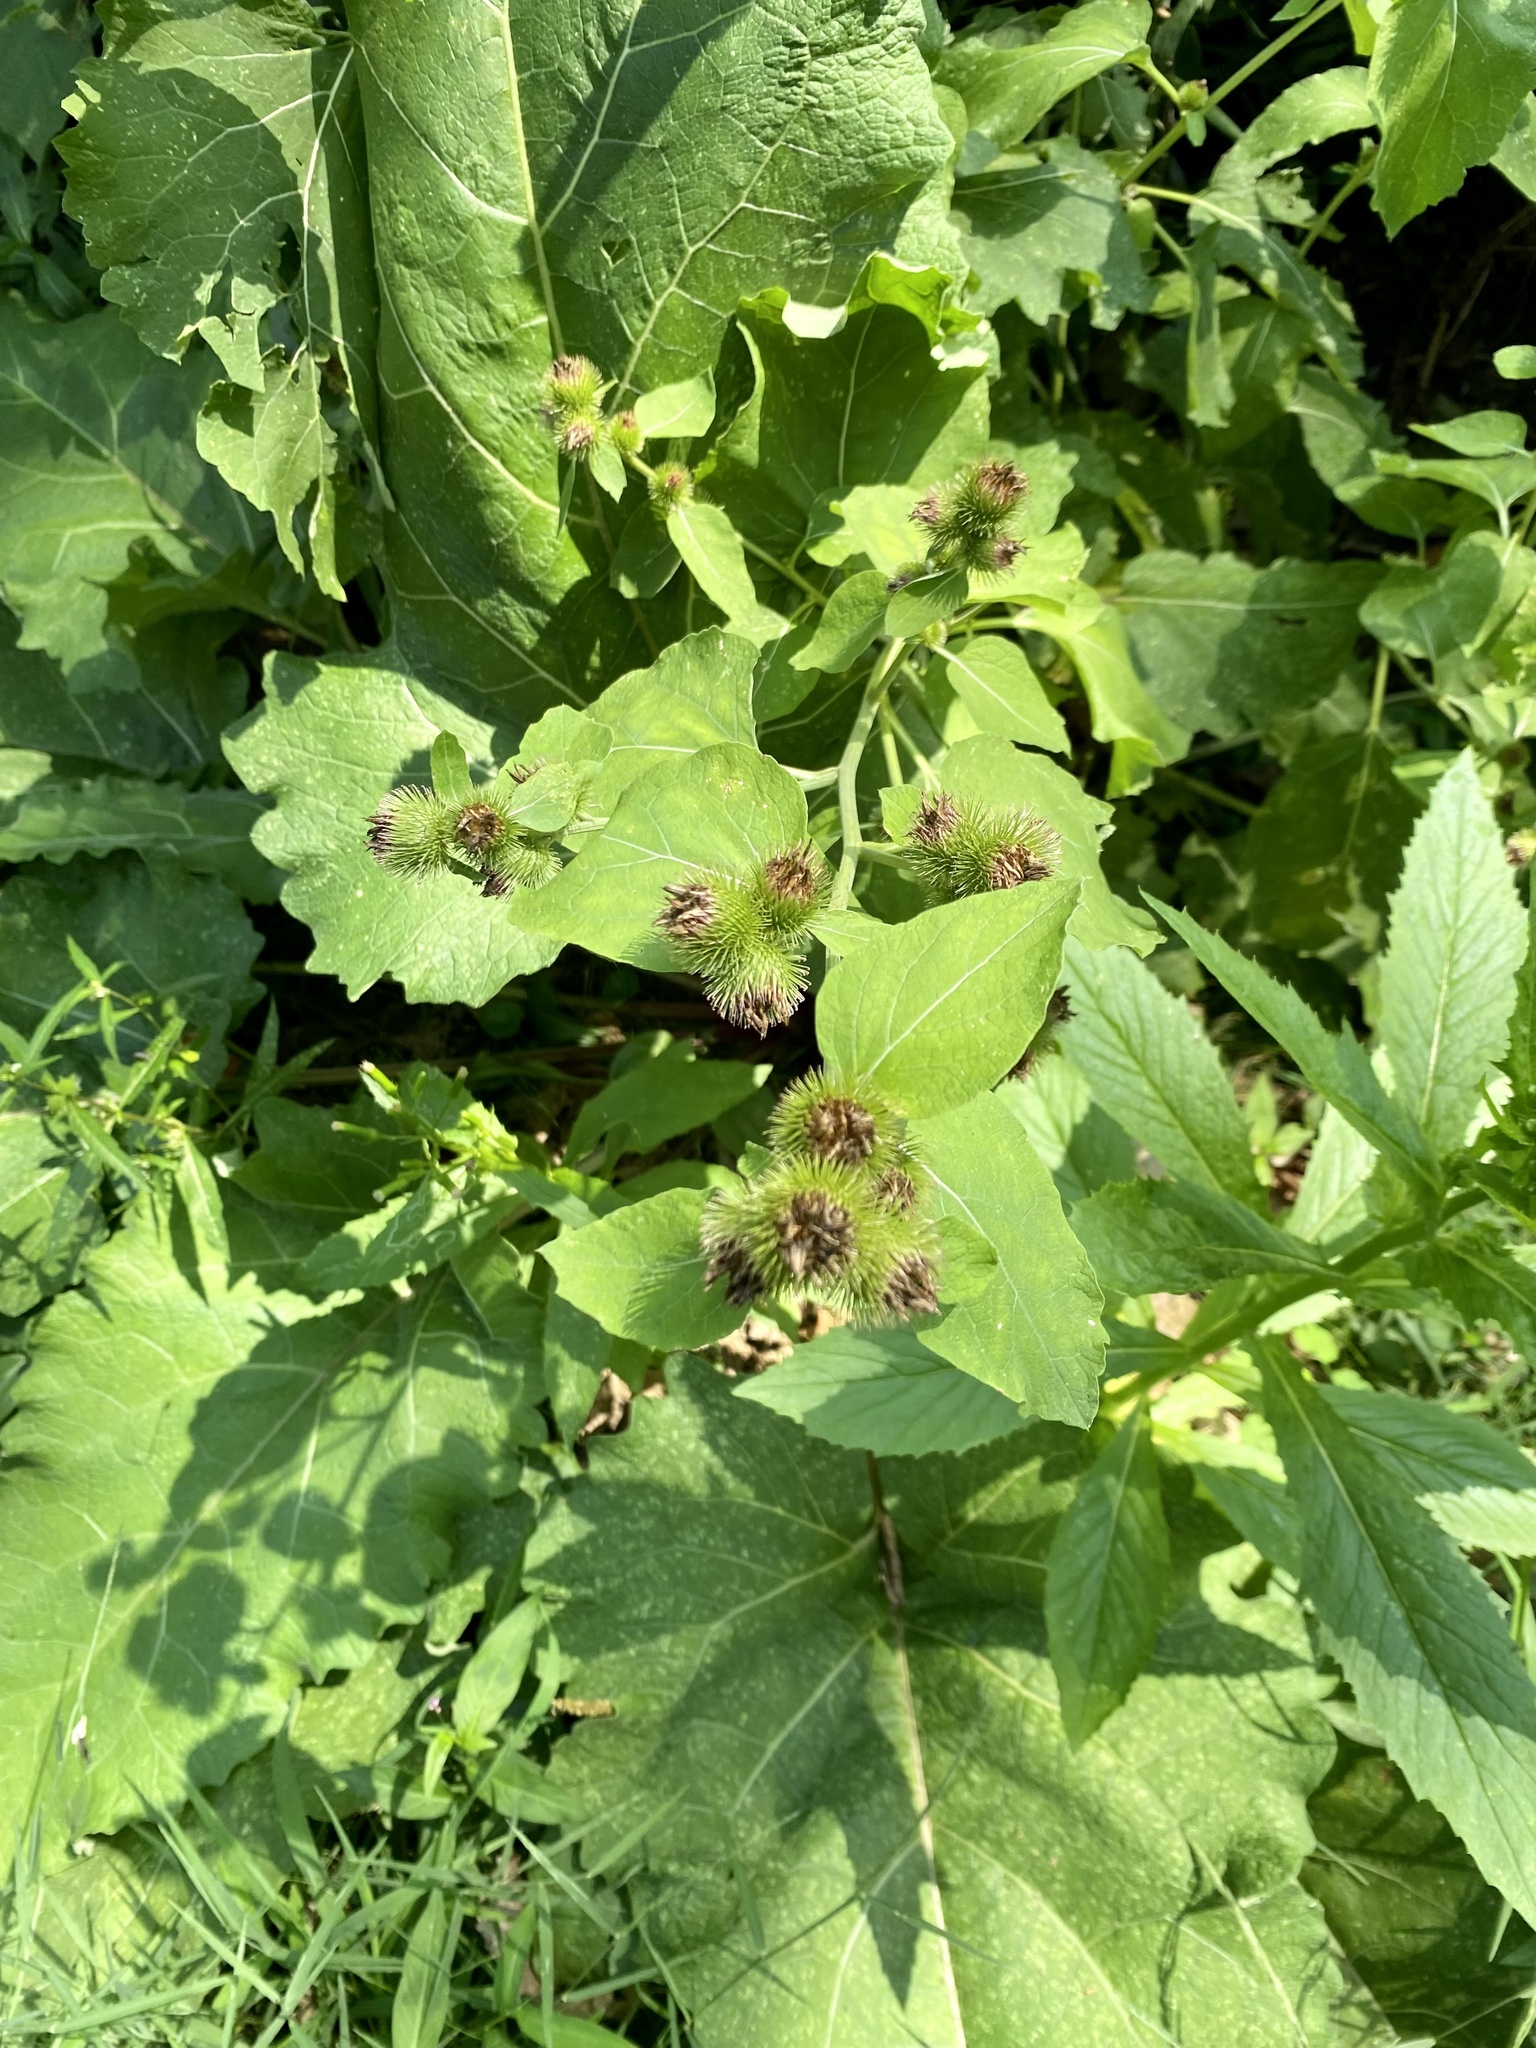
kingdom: Plantae
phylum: Tracheophyta
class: Magnoliopsida
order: Asterales
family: Asteraceae
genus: Arctium
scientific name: Arctium minus
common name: Lesser burdock
